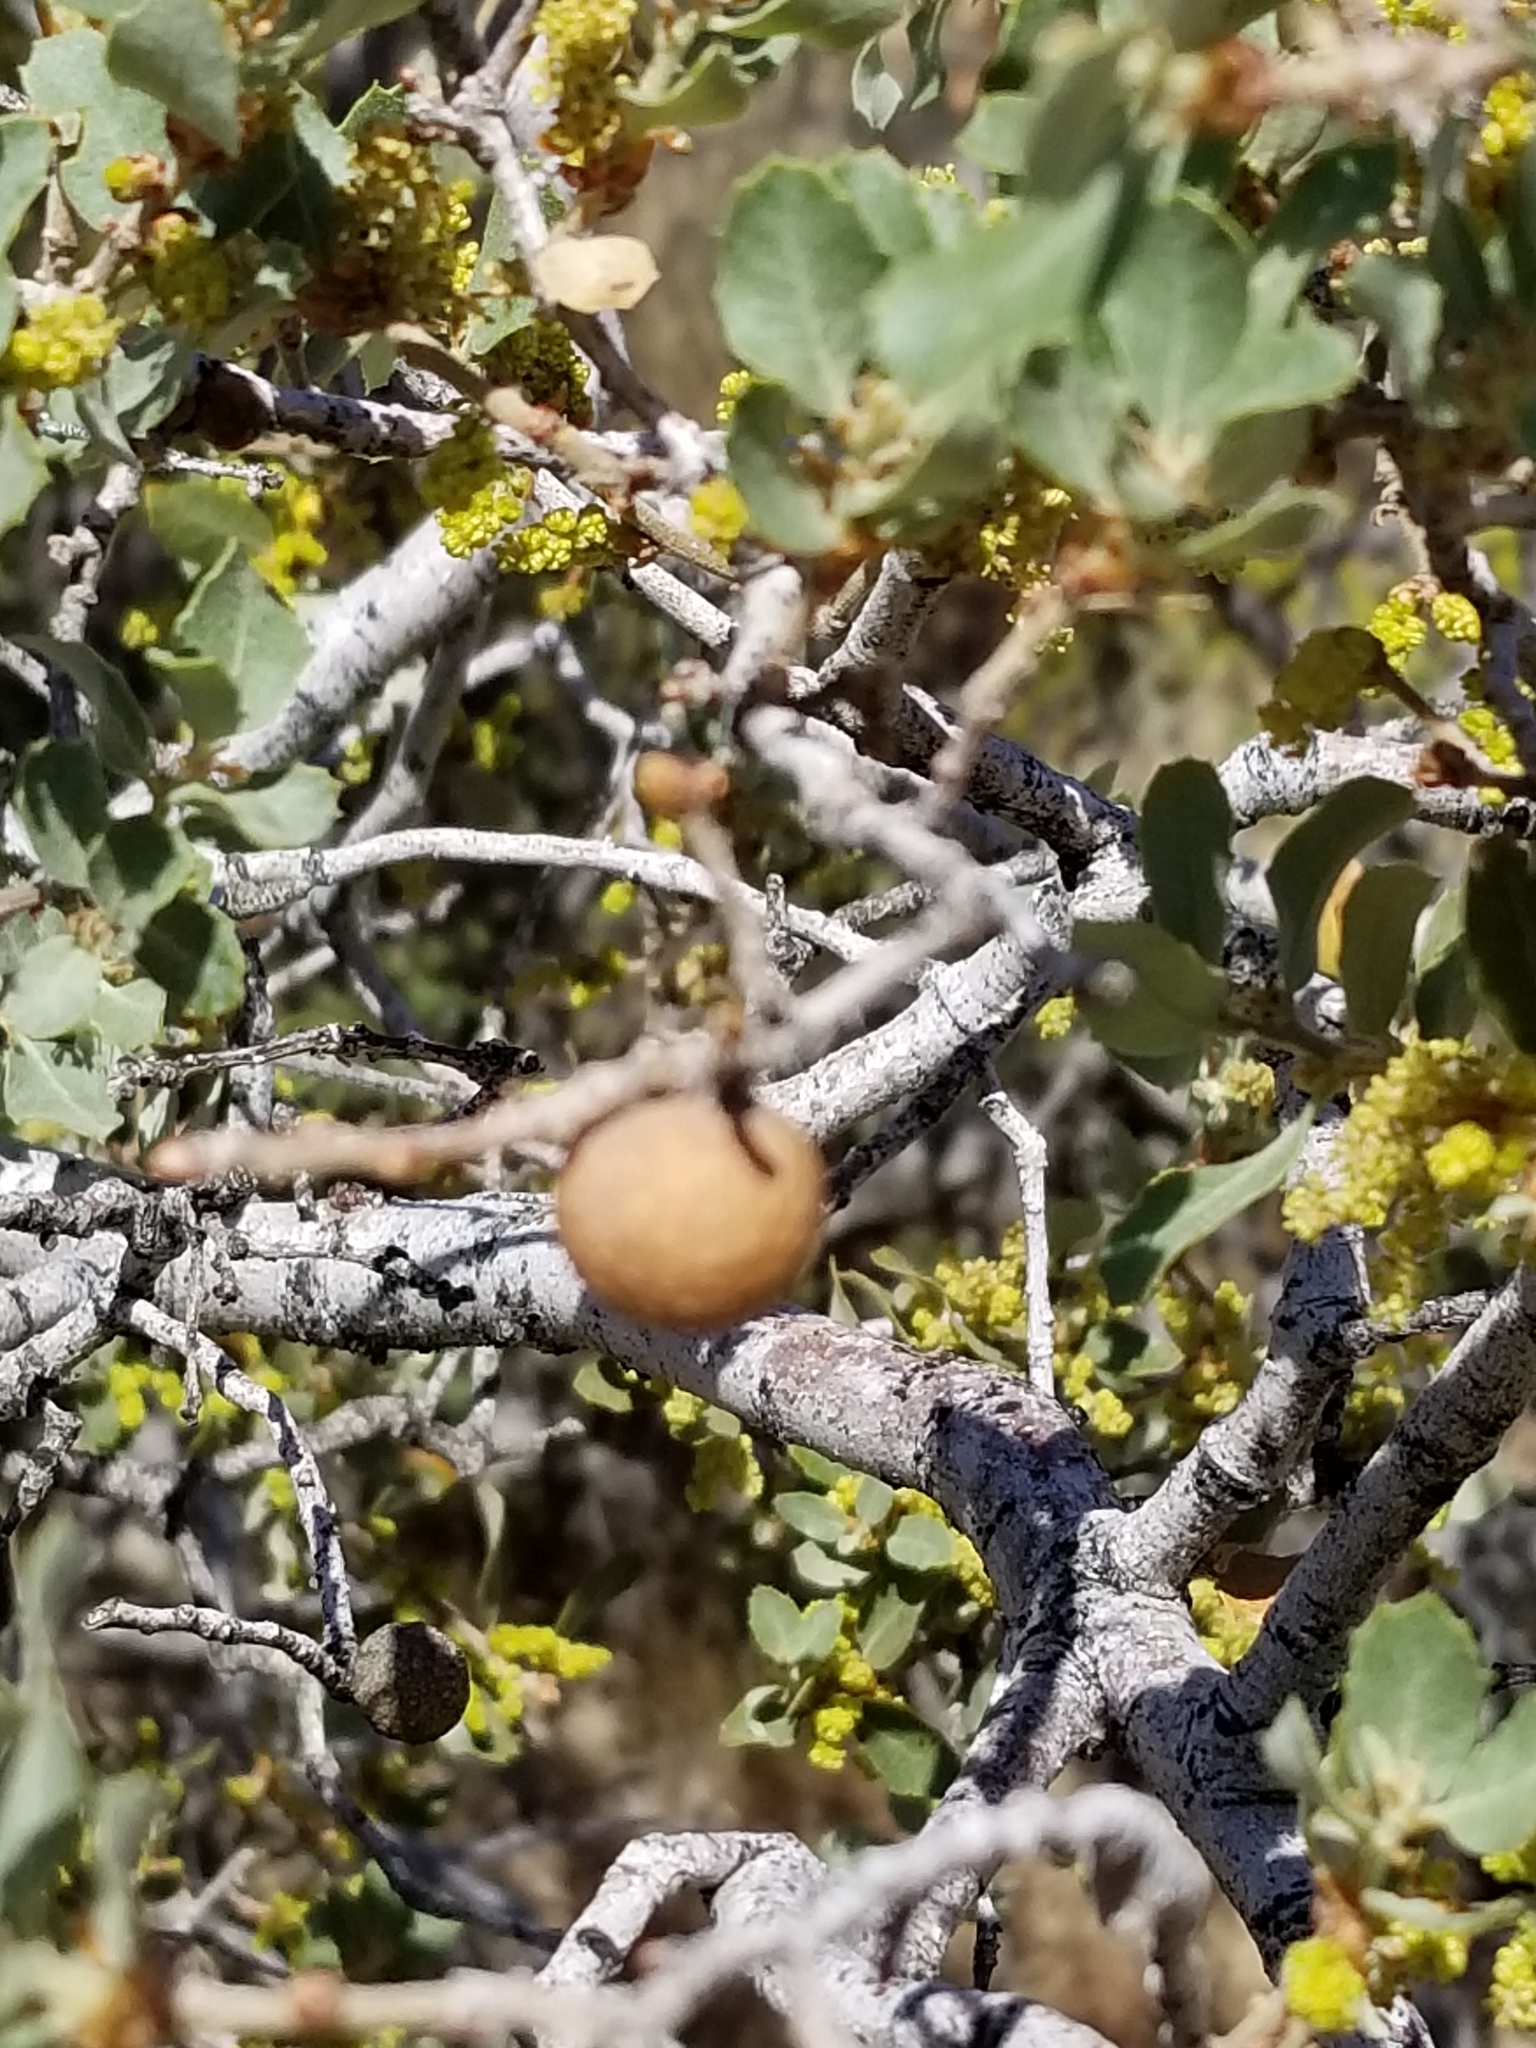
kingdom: Plantae
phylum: Tracheophyta
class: Magnoliopsida
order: Santalales
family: Viscaceae
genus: Phoradendron
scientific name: Phoradendron leucarpum
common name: Pacific mistletoe
